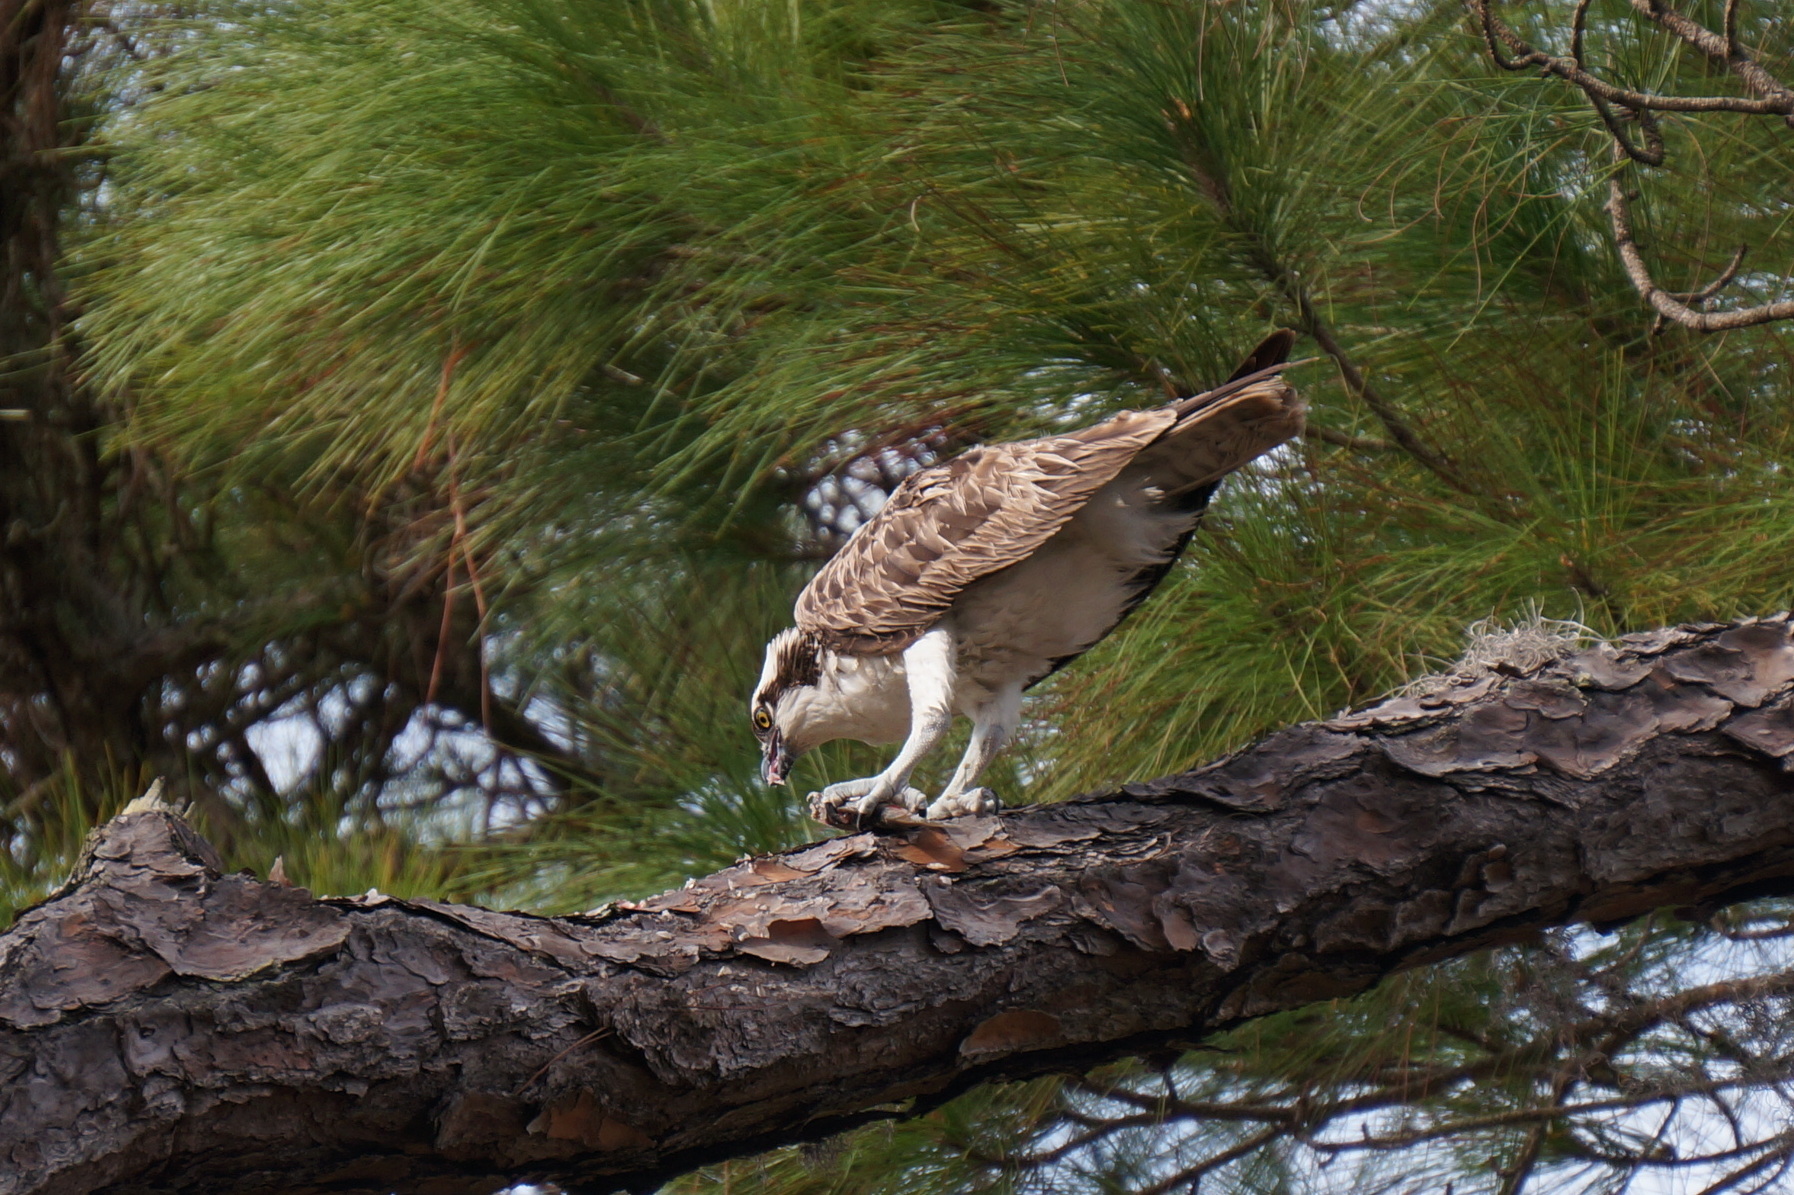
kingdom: Animalia
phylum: Chordata
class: Aves
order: Accipitriformes
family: Pandionidae
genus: Pandion
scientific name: Pandion haliaetus
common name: Osprey
